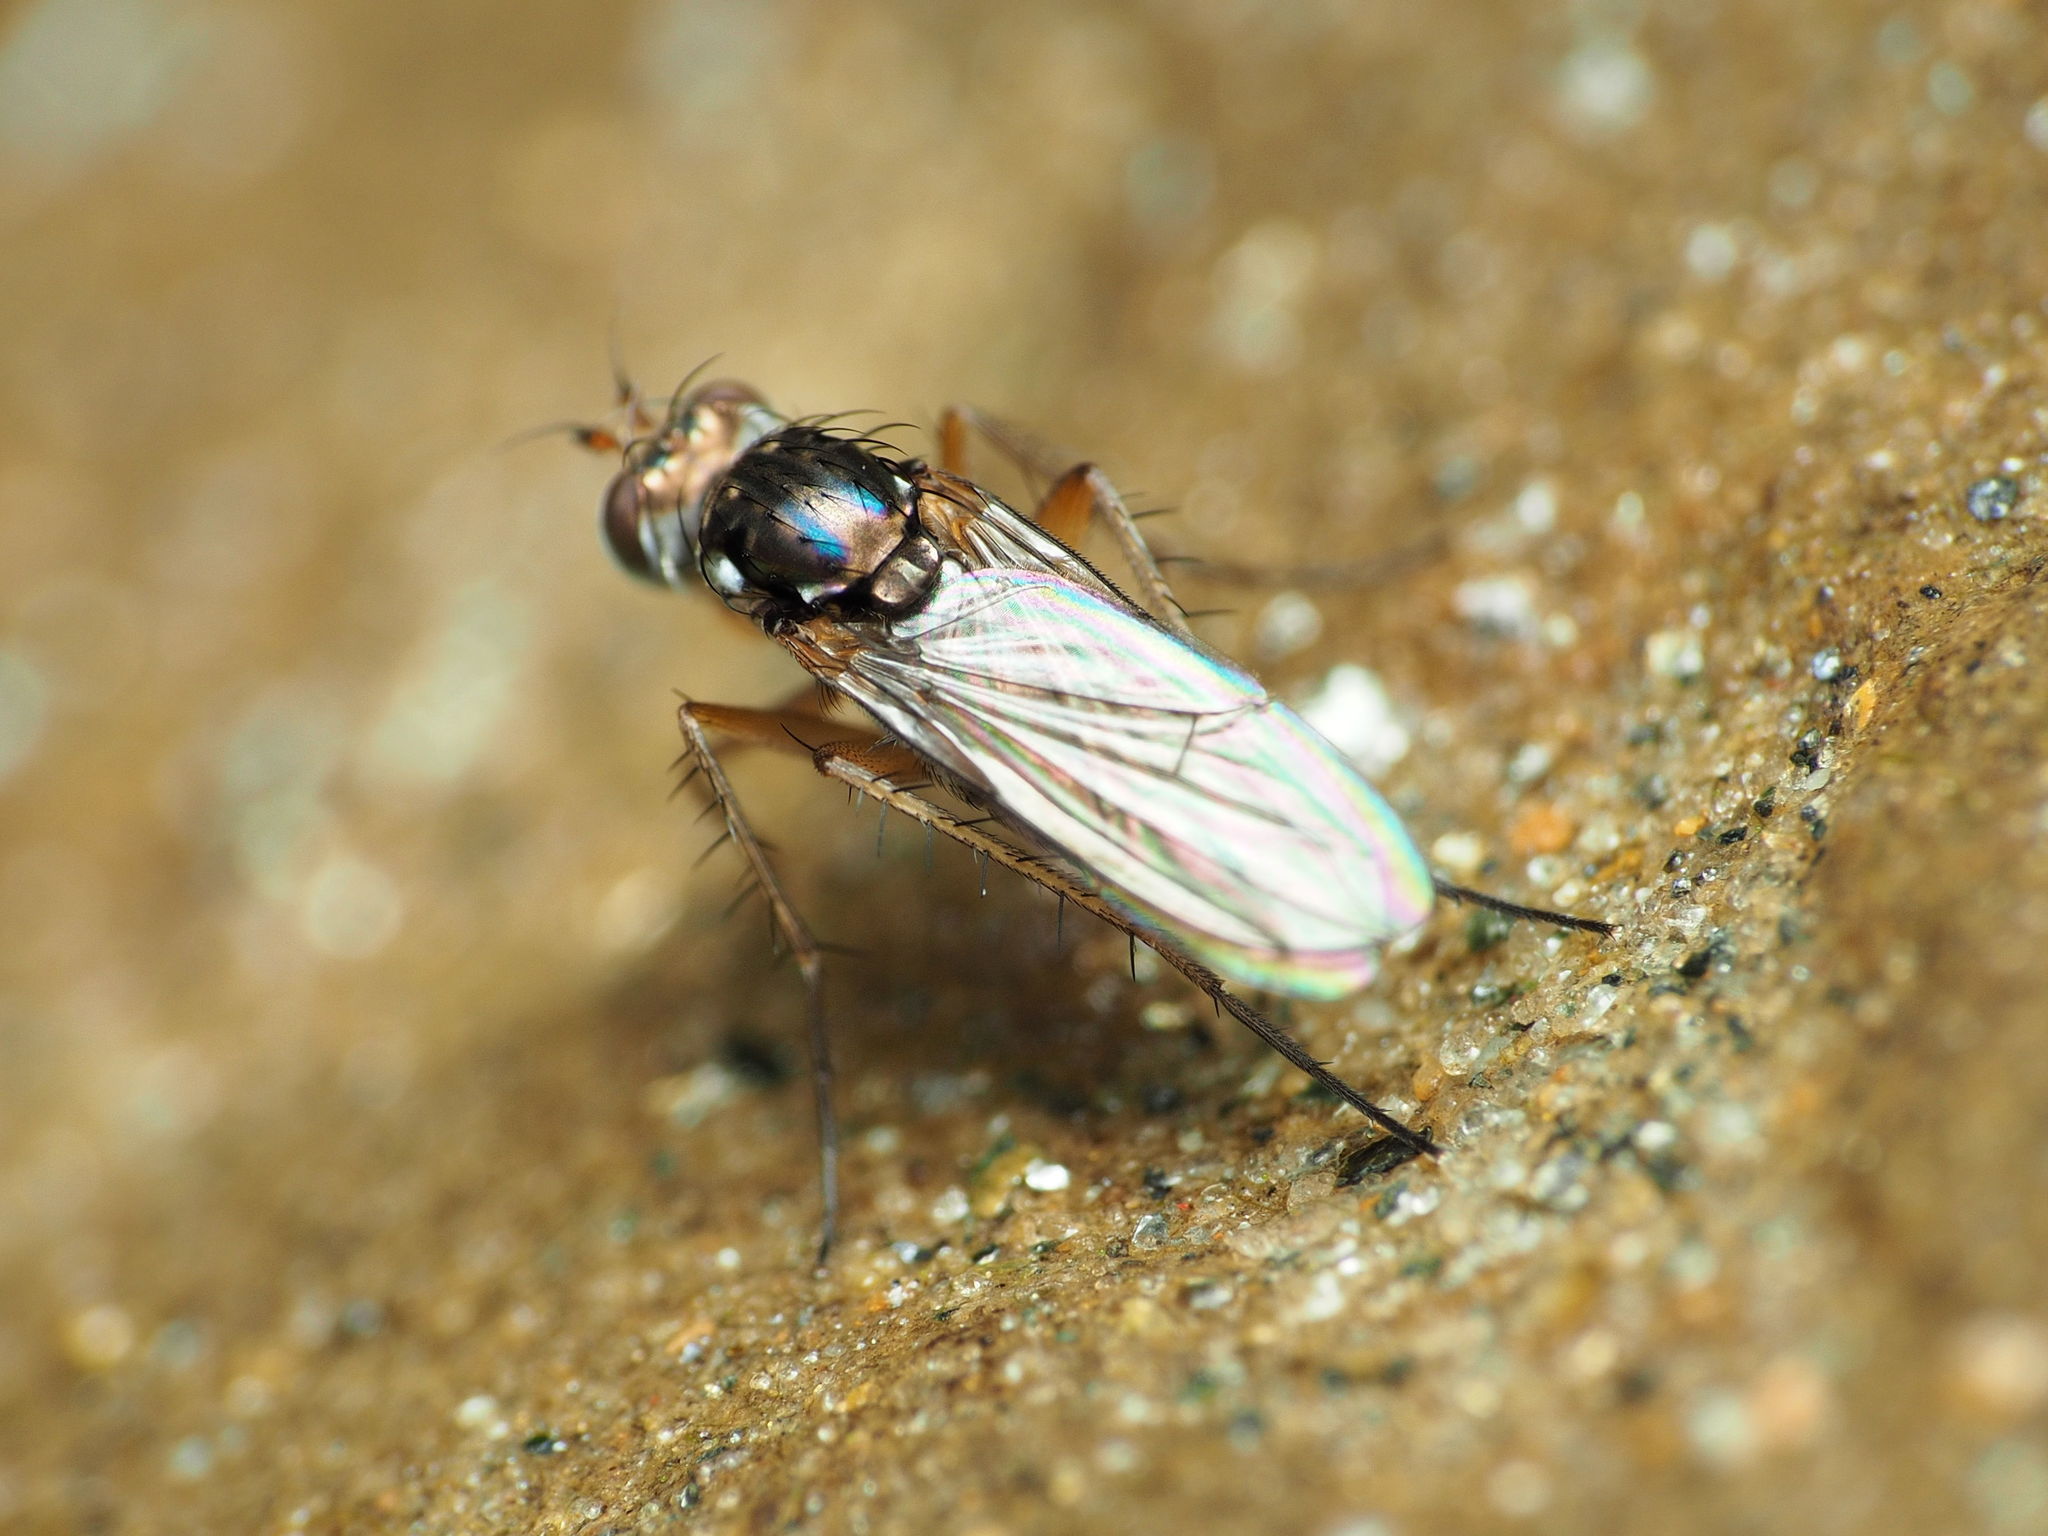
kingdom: Animalia
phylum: Arthropoda
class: Insecta
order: Diptera
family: Dolichopodidae
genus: Pelastoneurus
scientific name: Pelastoneurus vagans
